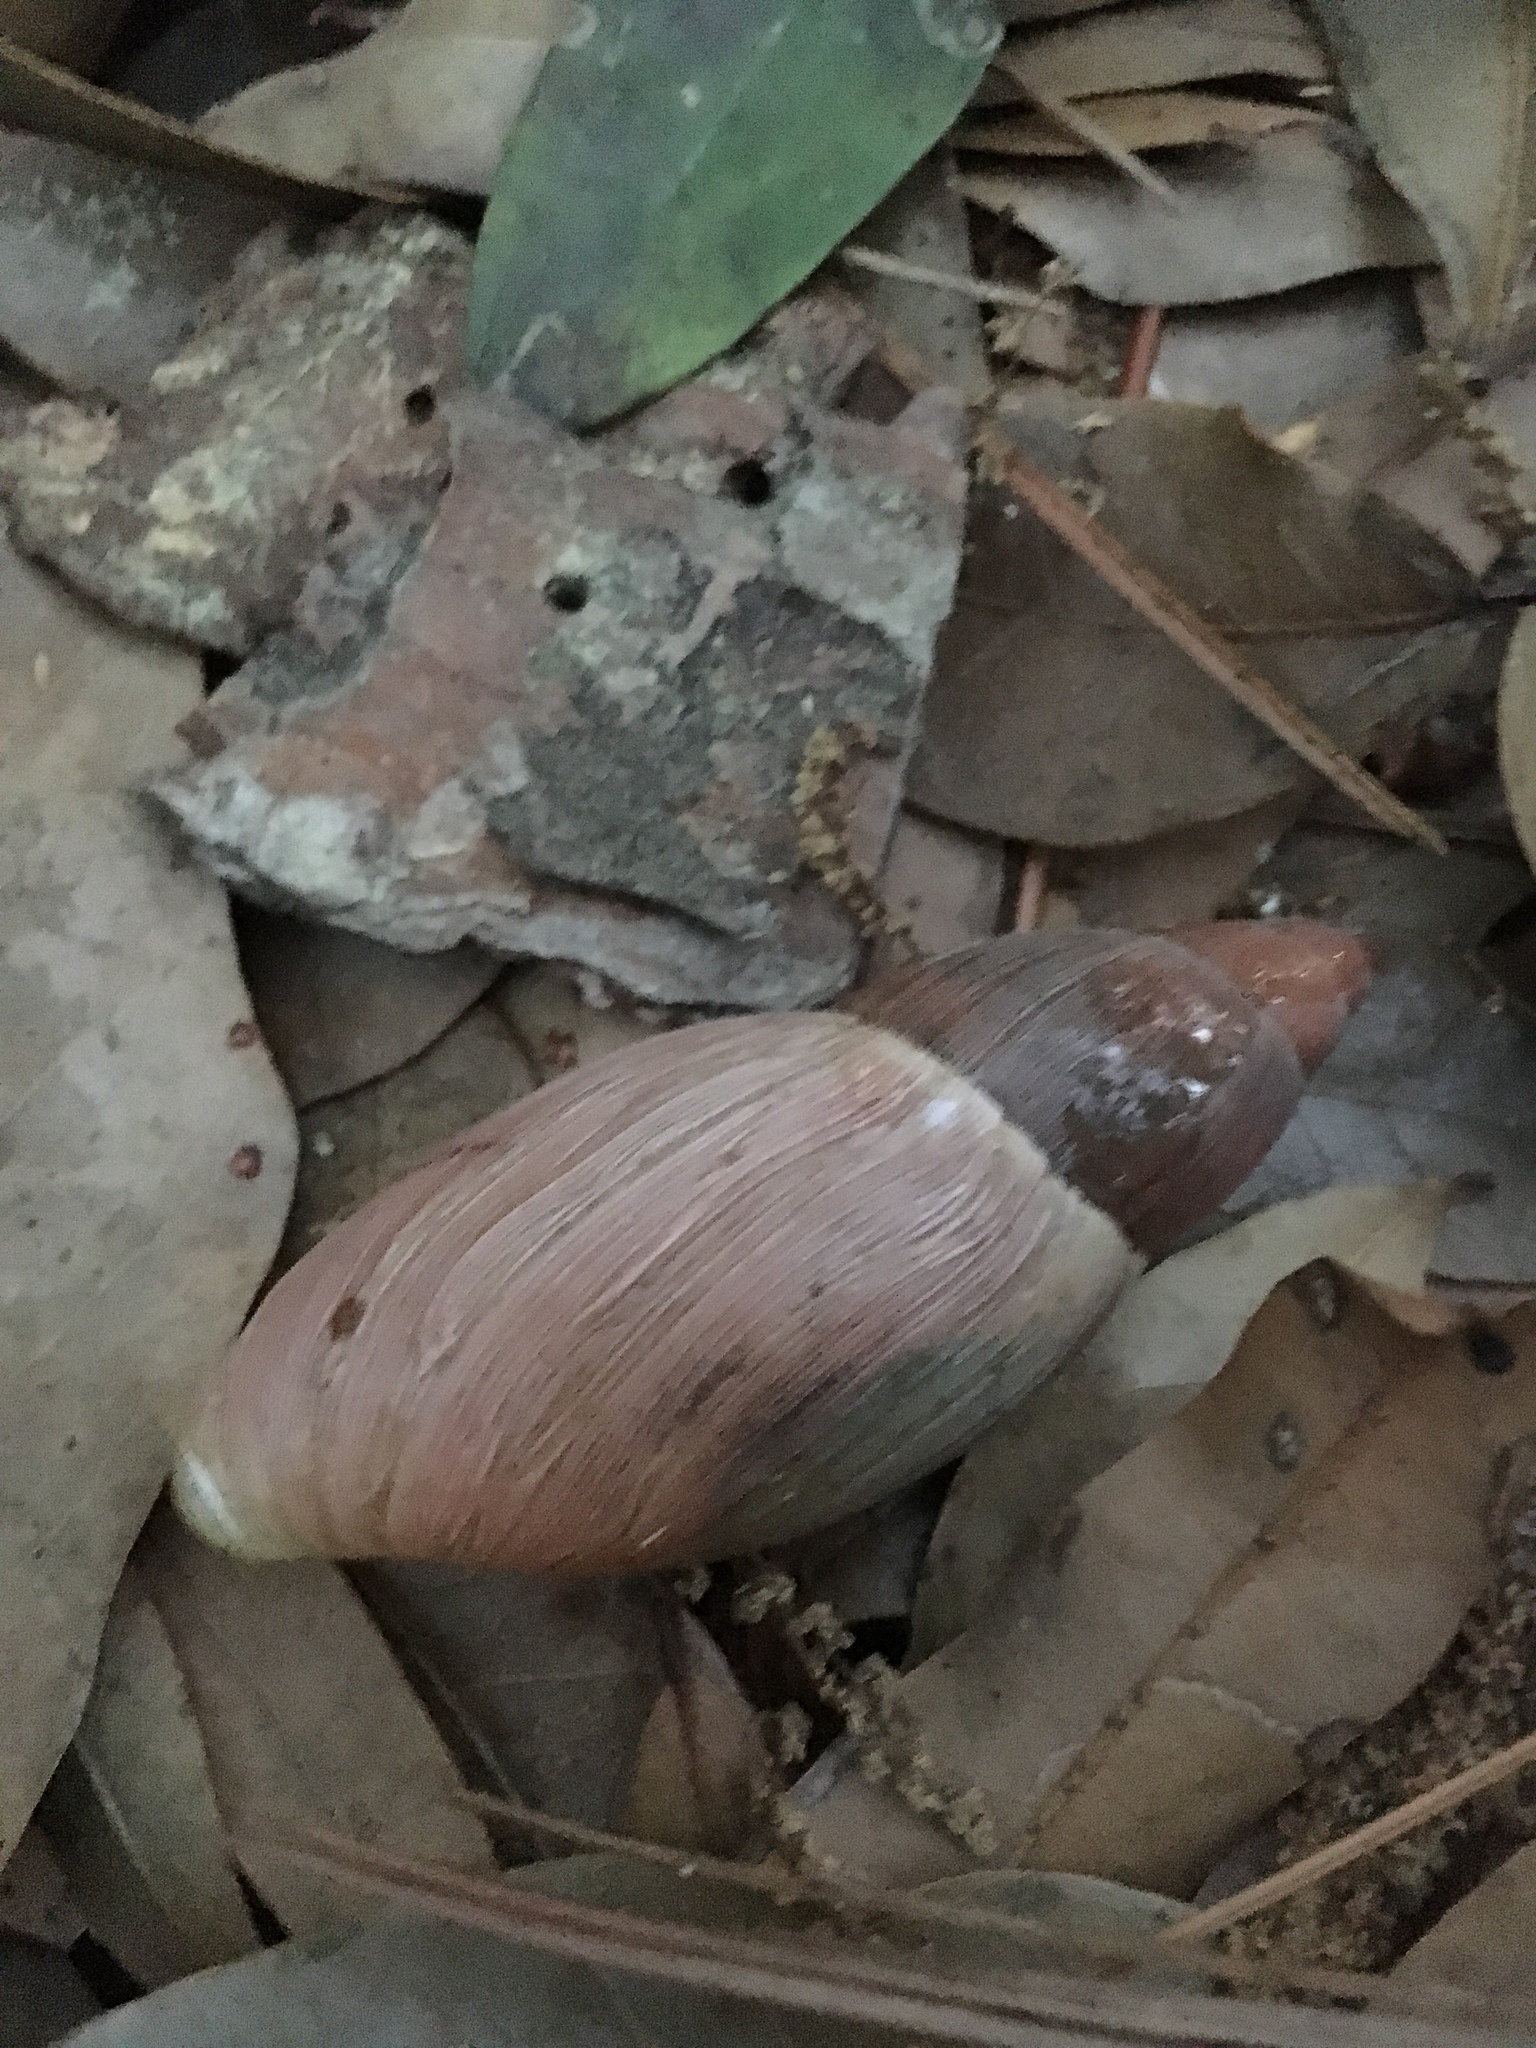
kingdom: Animalia
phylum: Mollusca
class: Gastropoda
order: Stylommatophora
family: Spiraxidae
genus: Euglandina
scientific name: Euglandina rosea
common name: Rosy wolfsnail
